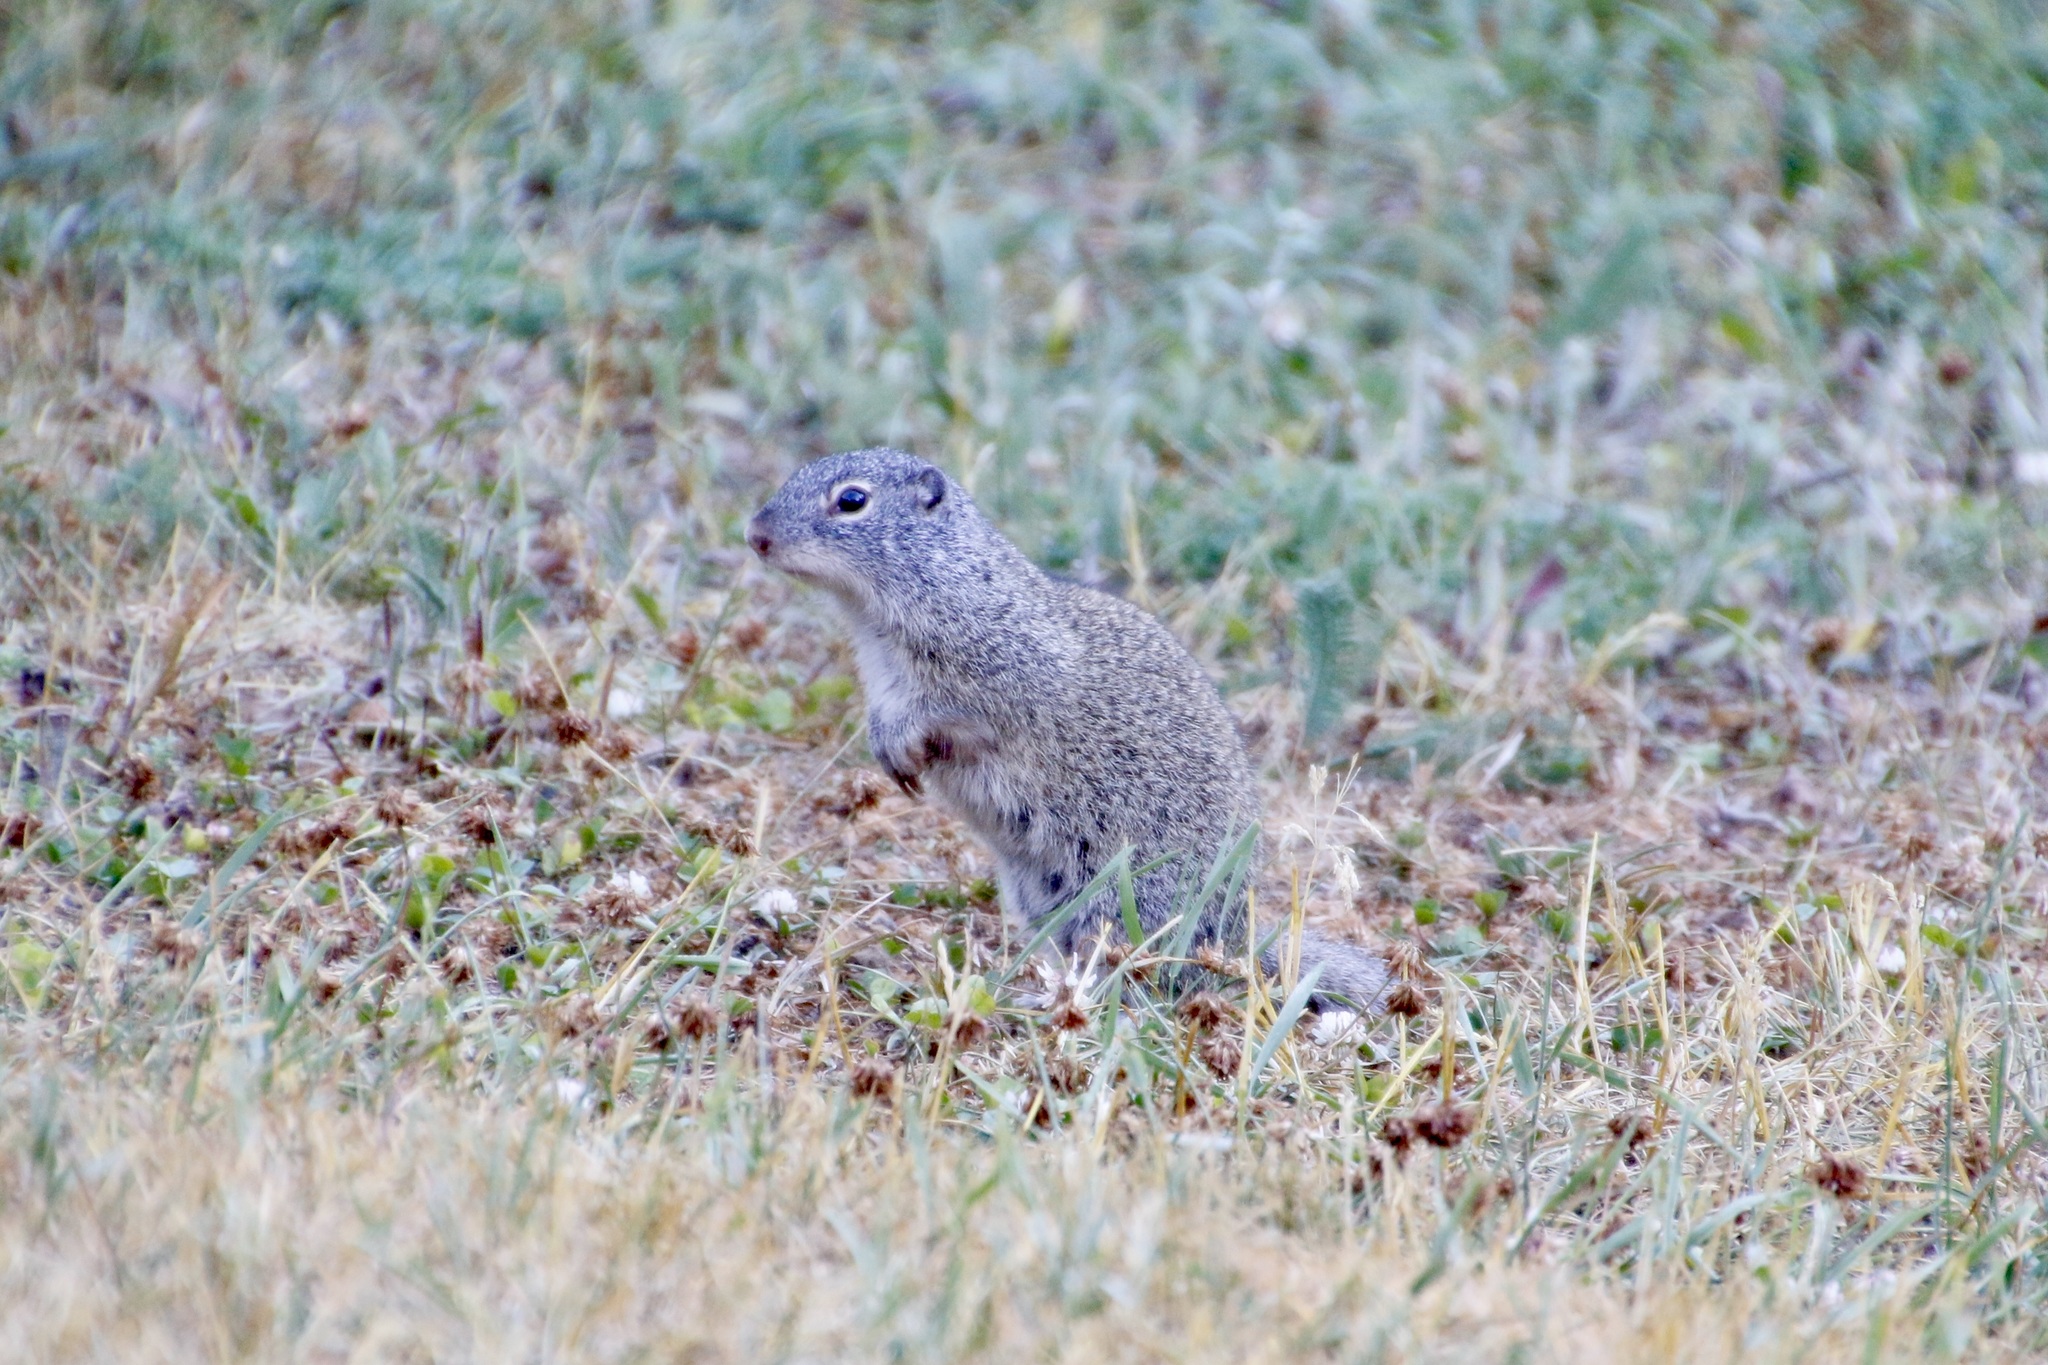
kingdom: Animalia
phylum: Chordata
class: Mammalia
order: Rodentia
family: Sciuridae
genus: Poliocitellus
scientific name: Poliocitellus franklinii
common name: Franklin's ground squirrel
